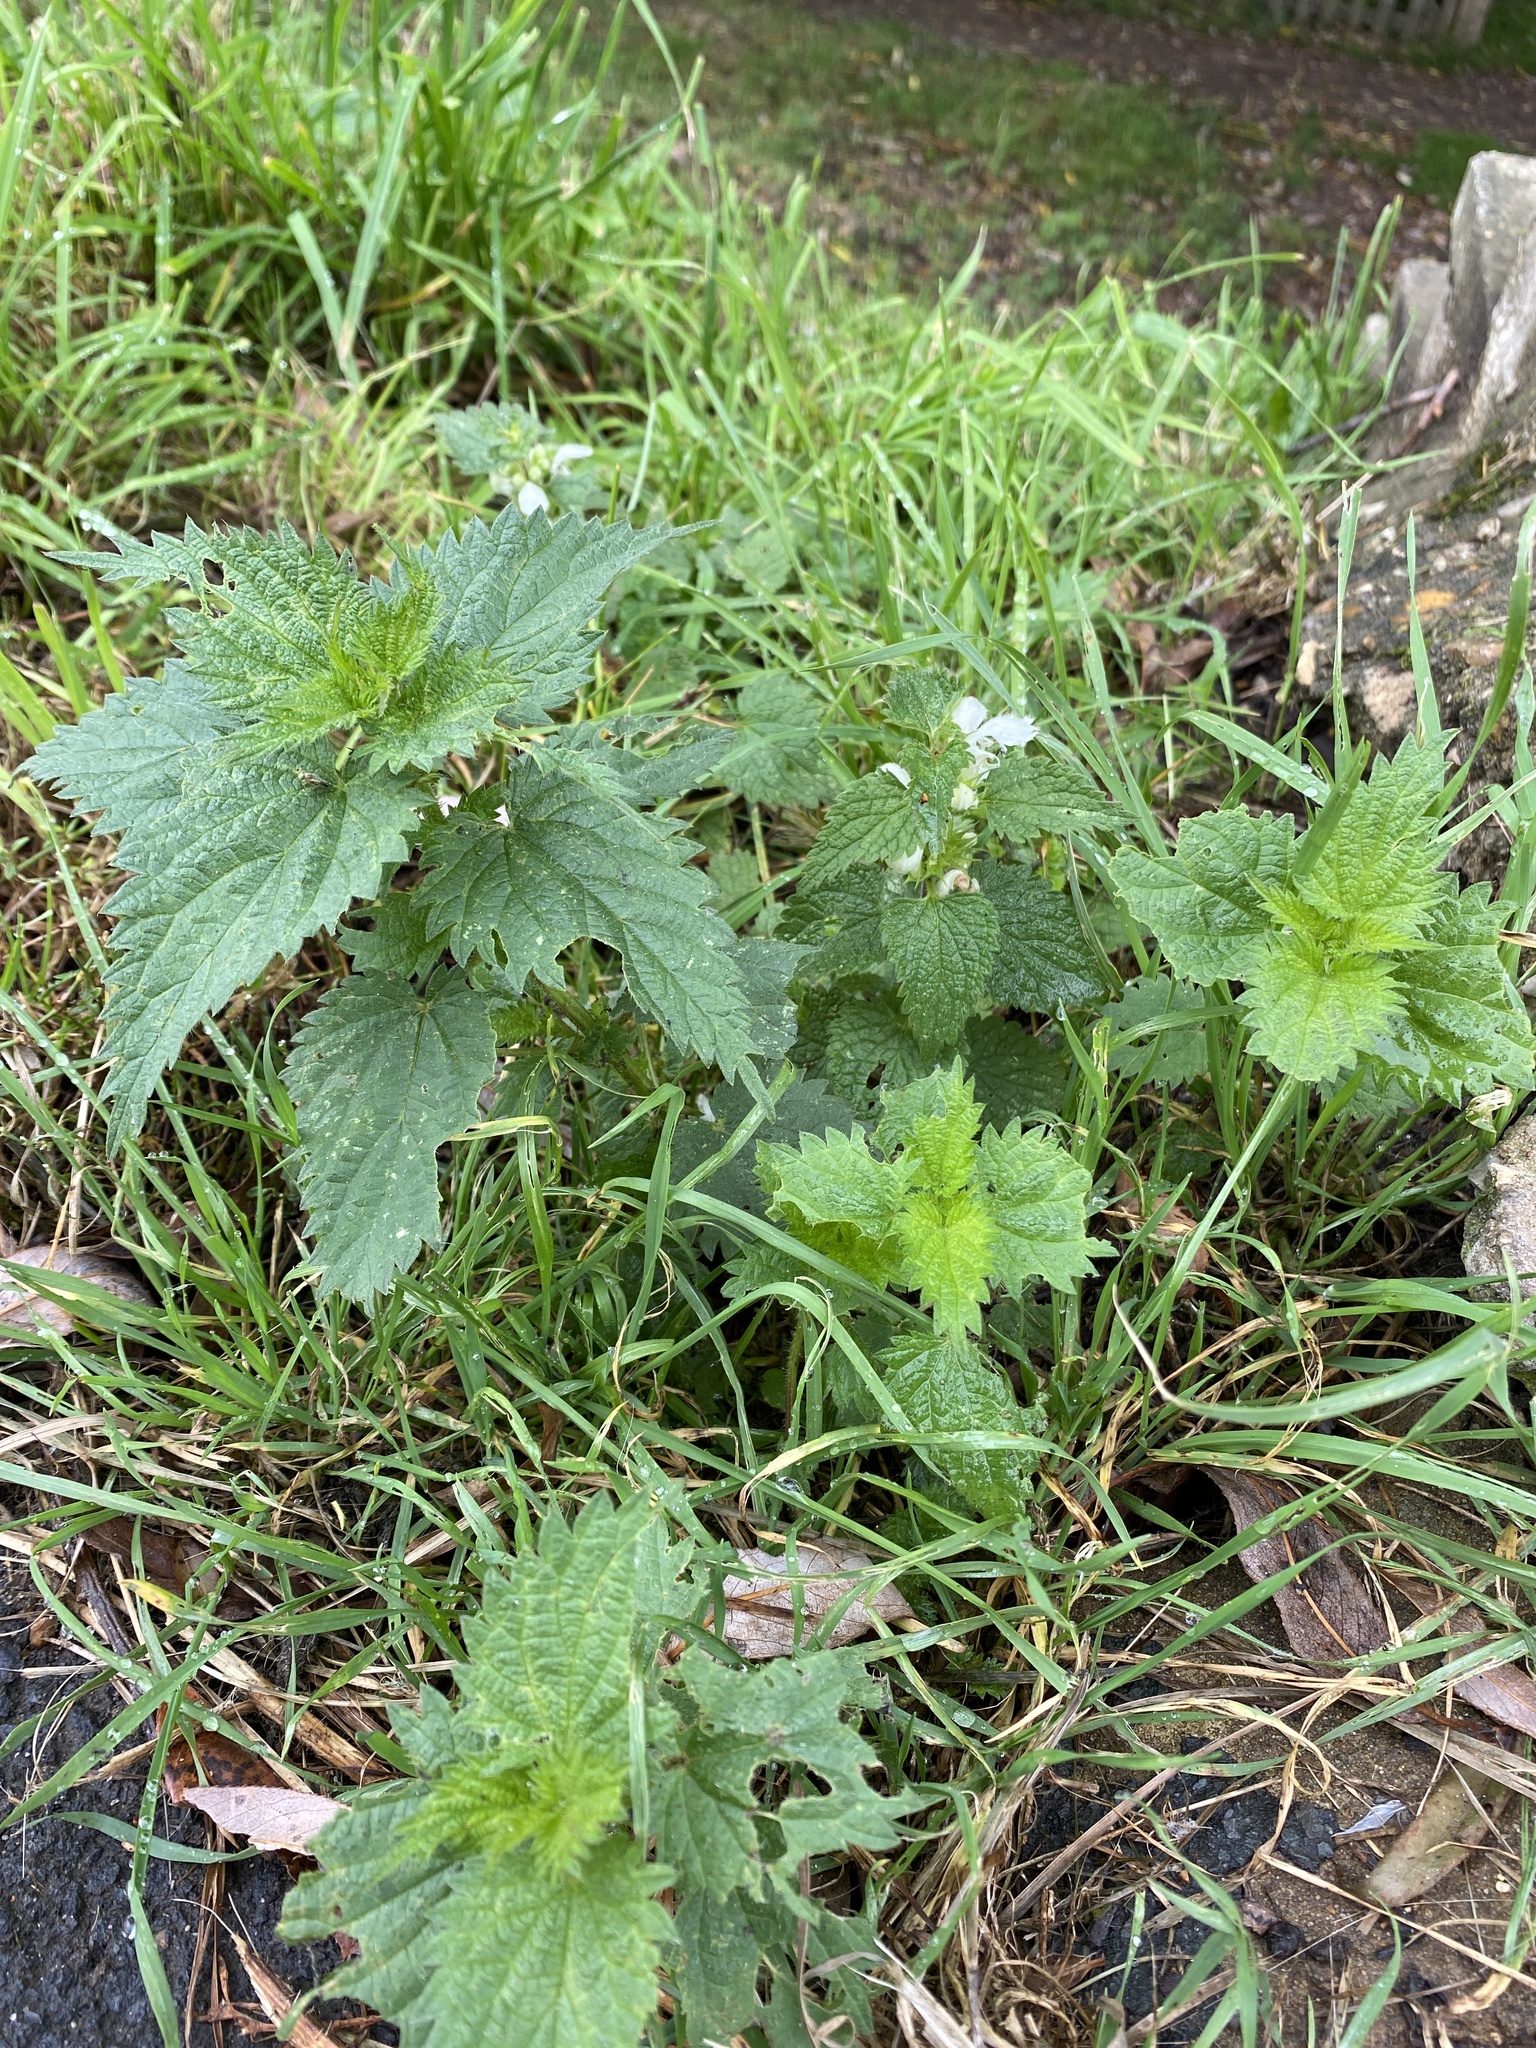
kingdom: Plantae
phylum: Tracheophyta
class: Magnoliopsida
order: Lamiales
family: Lamiaceae
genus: Lamium
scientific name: Lamium album
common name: White dead-nettle
